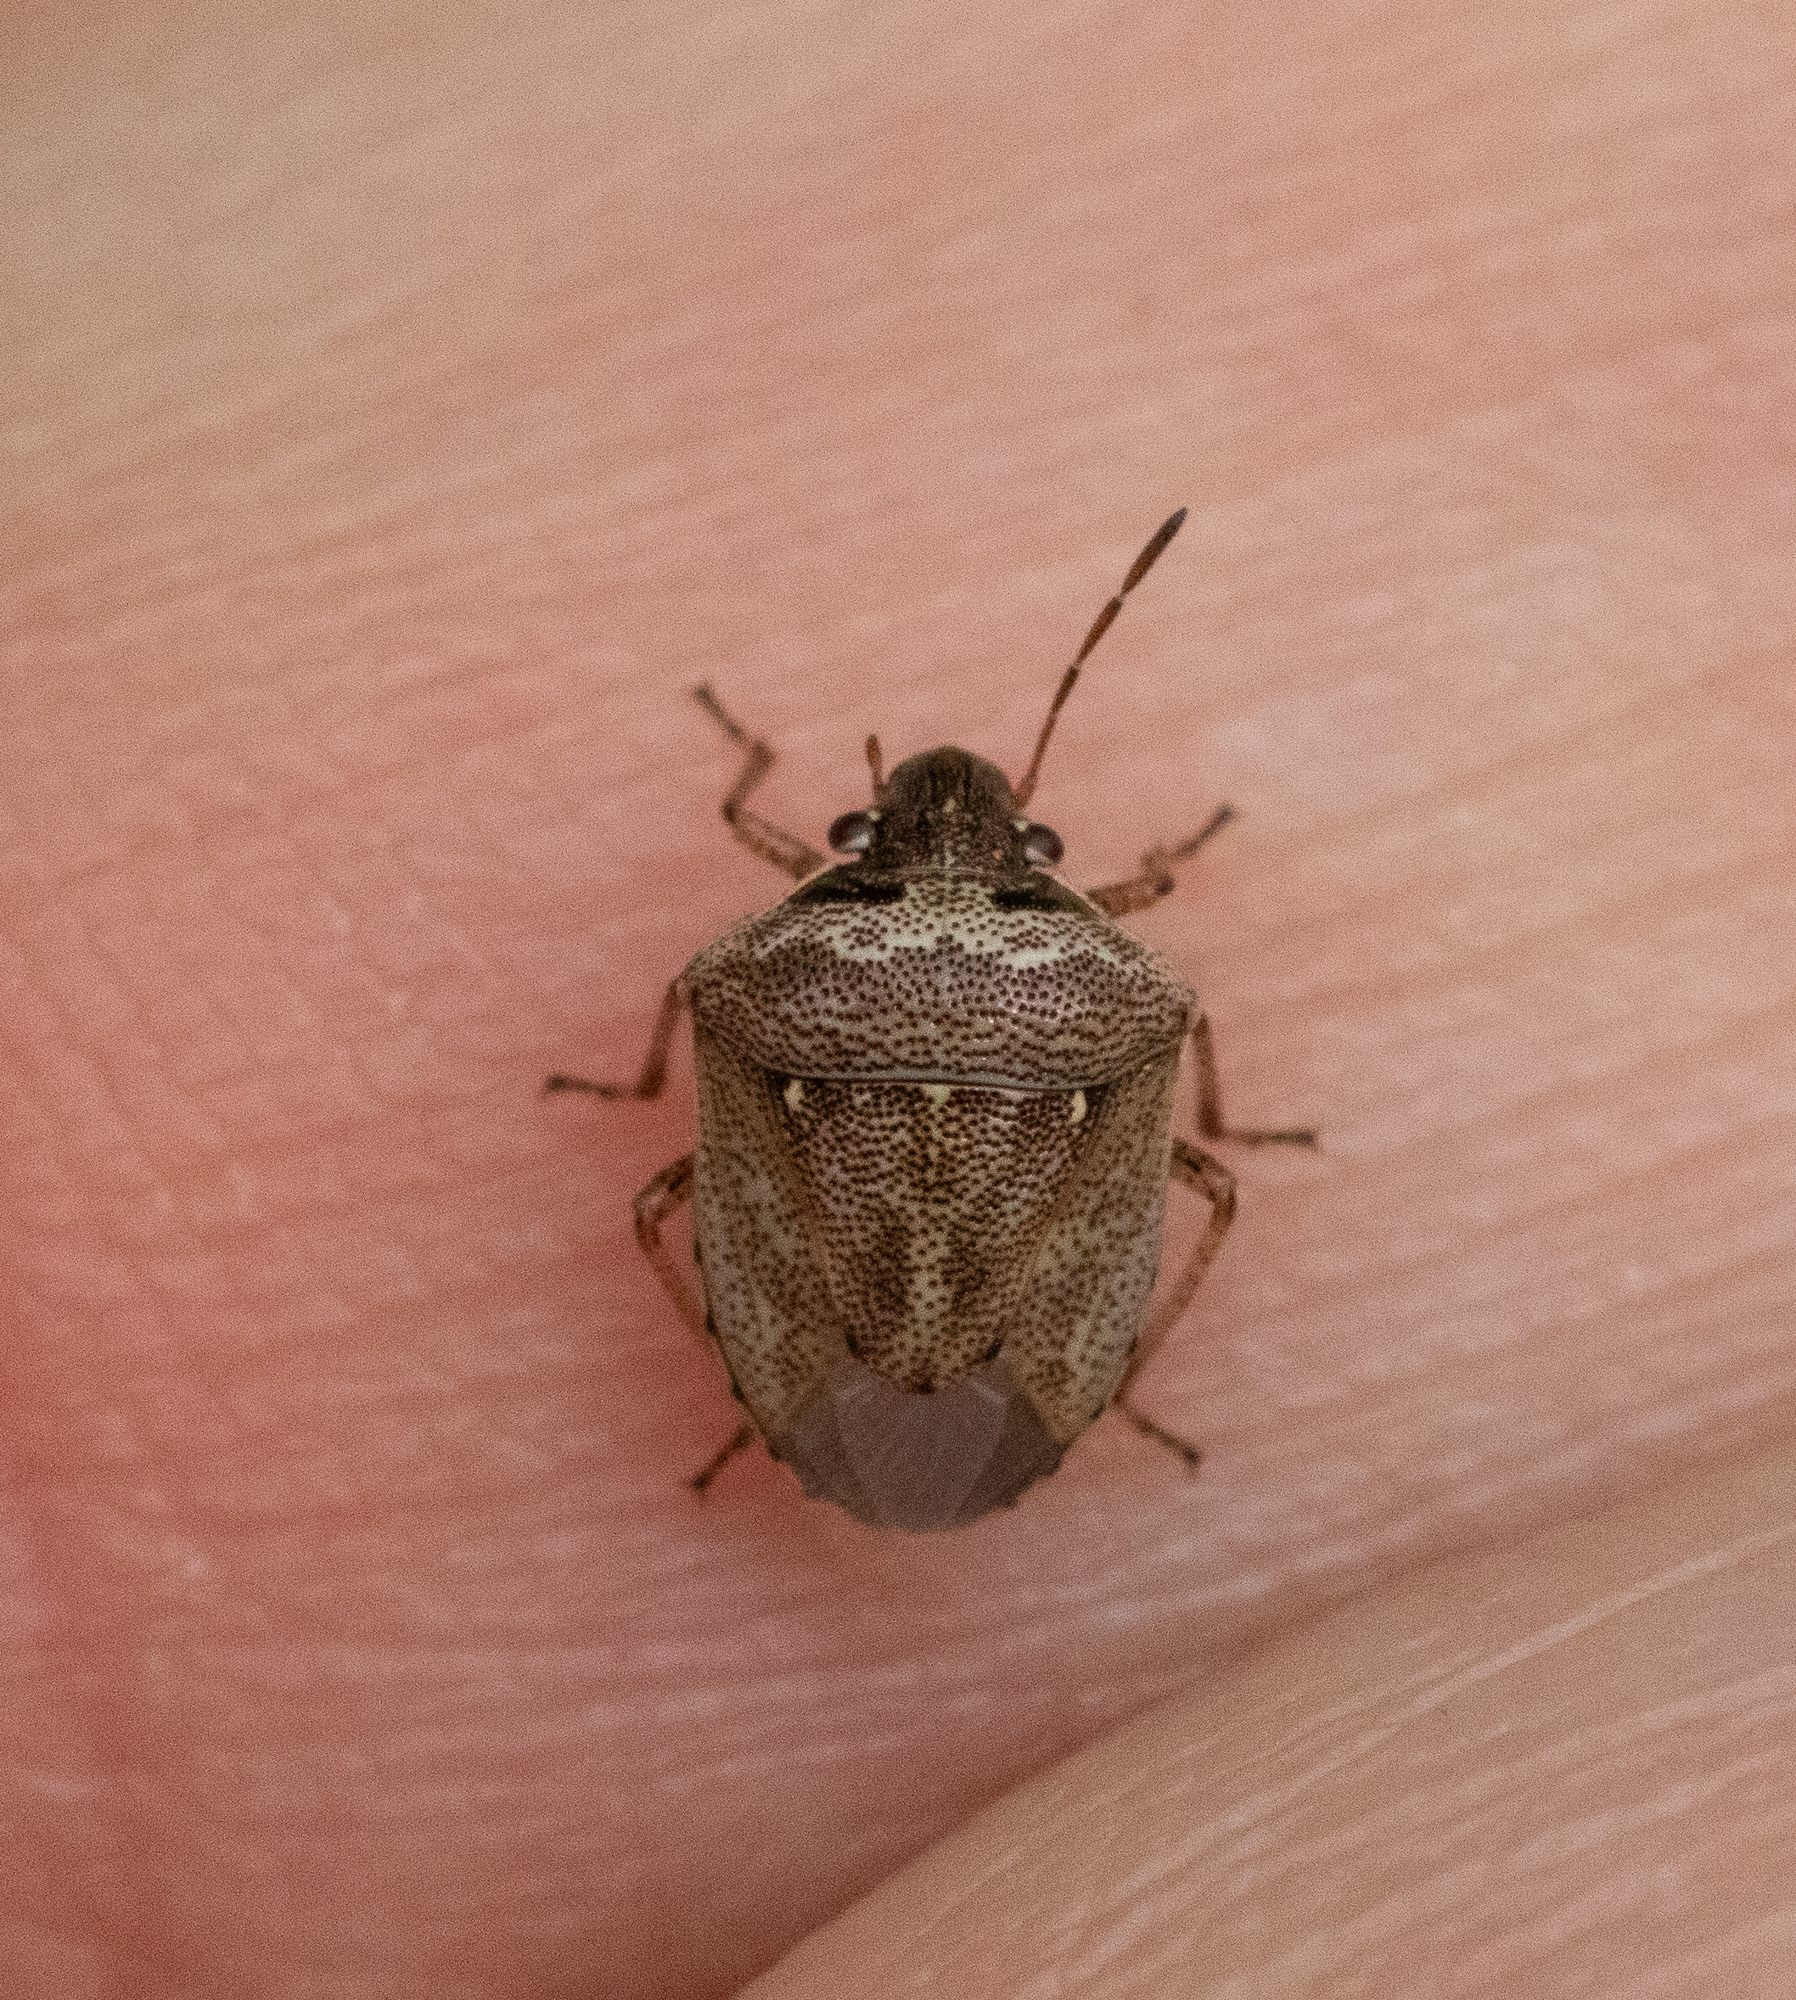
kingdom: Animalia
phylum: Arthropoda
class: Insecta
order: Hemiptera
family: Pentatomidae
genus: Eysarcoris
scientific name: Eysarcoris ventralis
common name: White-spotted stink bug
